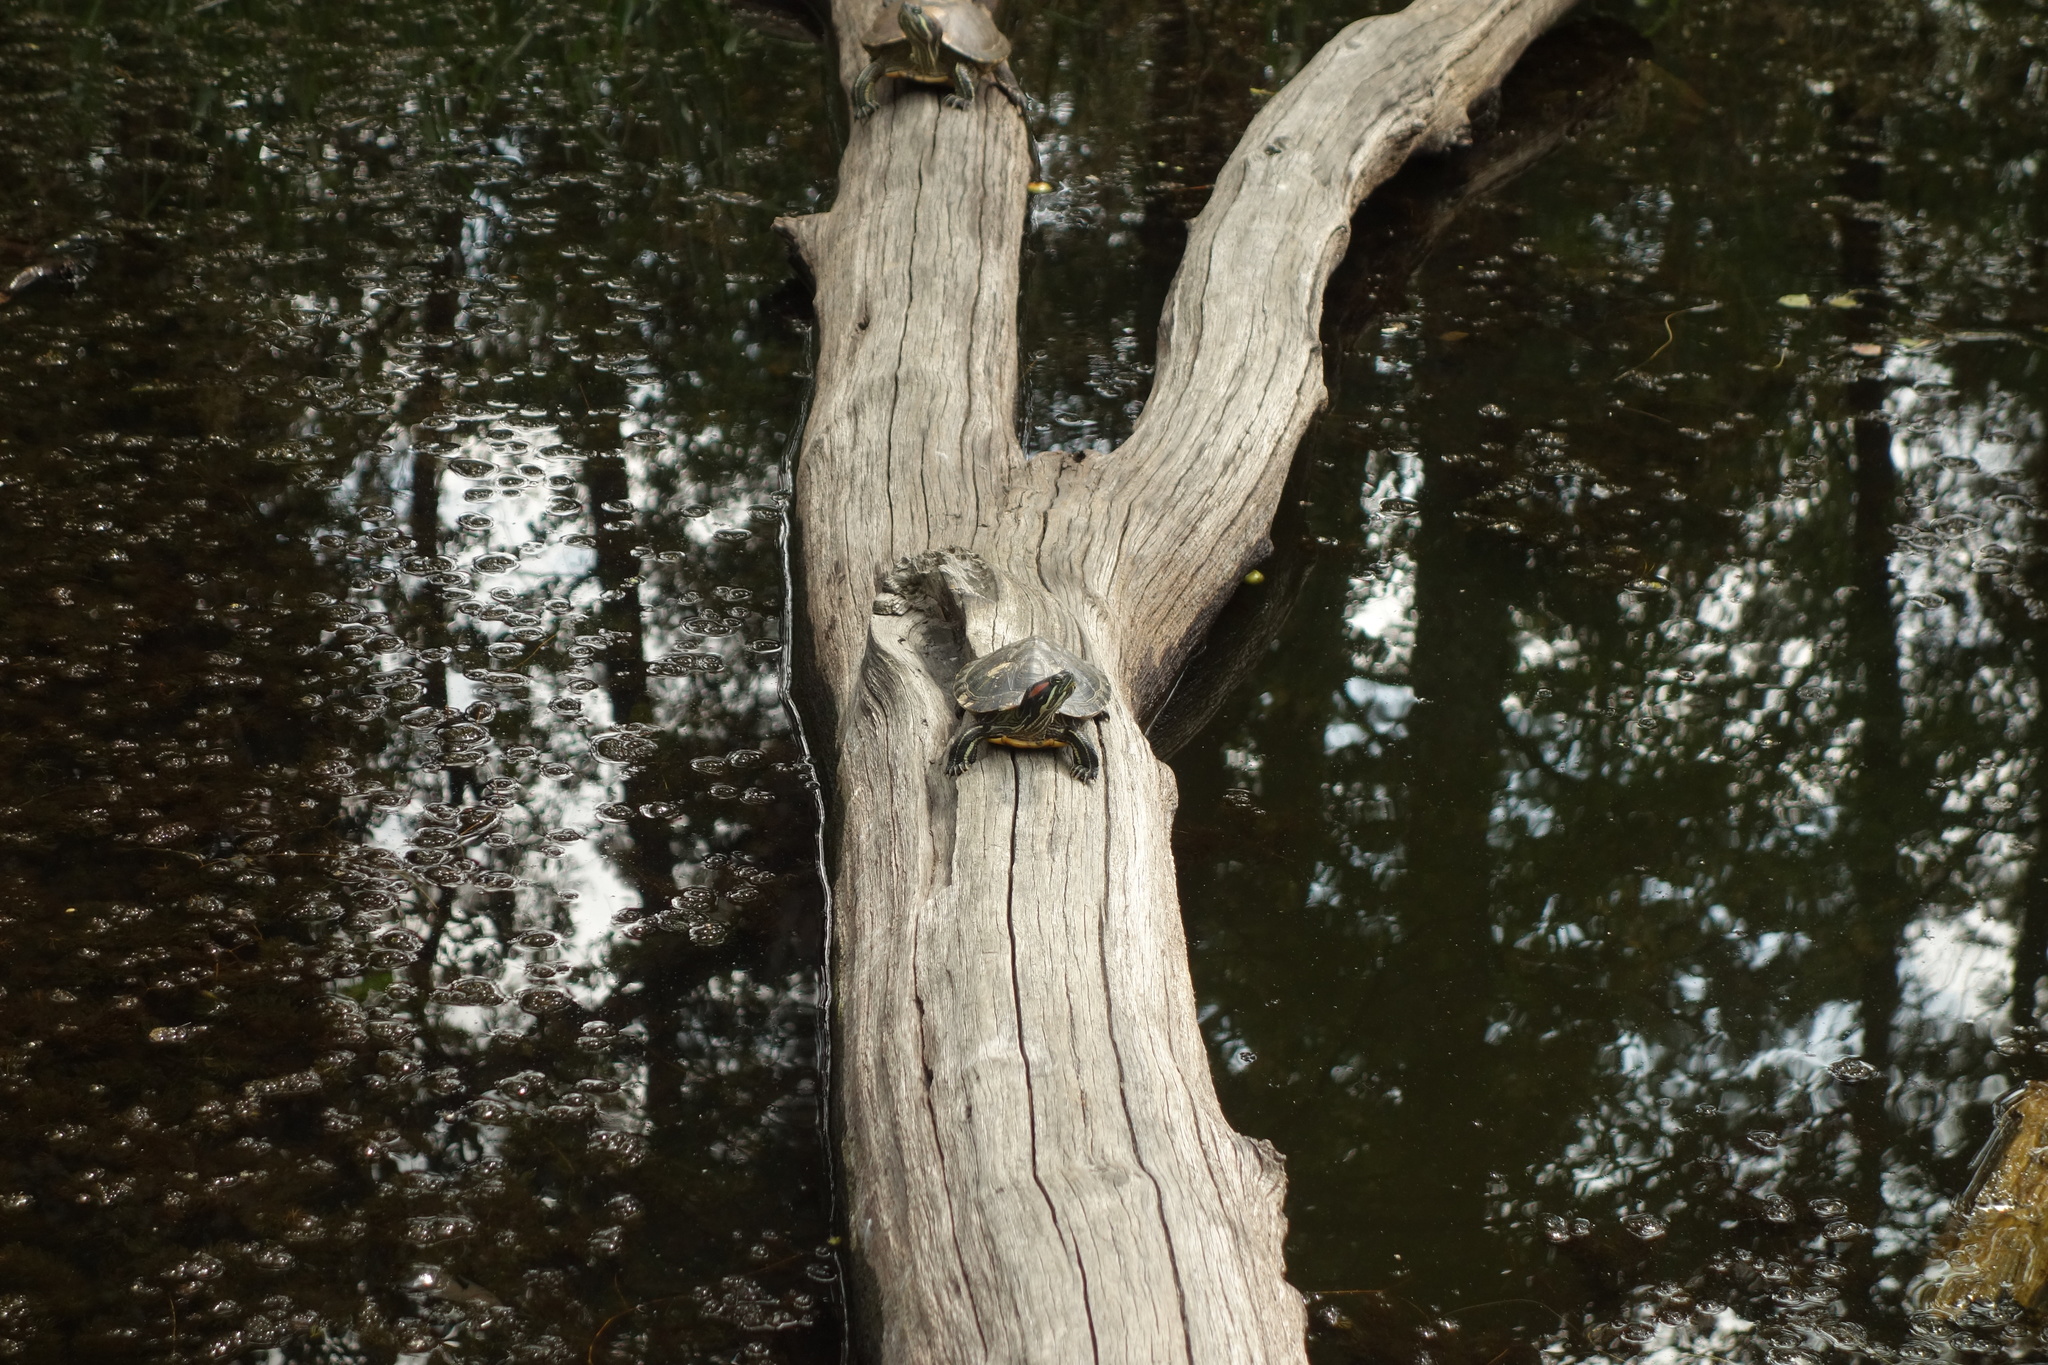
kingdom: Animalia
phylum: Chordata
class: Testudines
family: Emydidae
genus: Trachemys
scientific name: Trachemys scripta
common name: Slider
